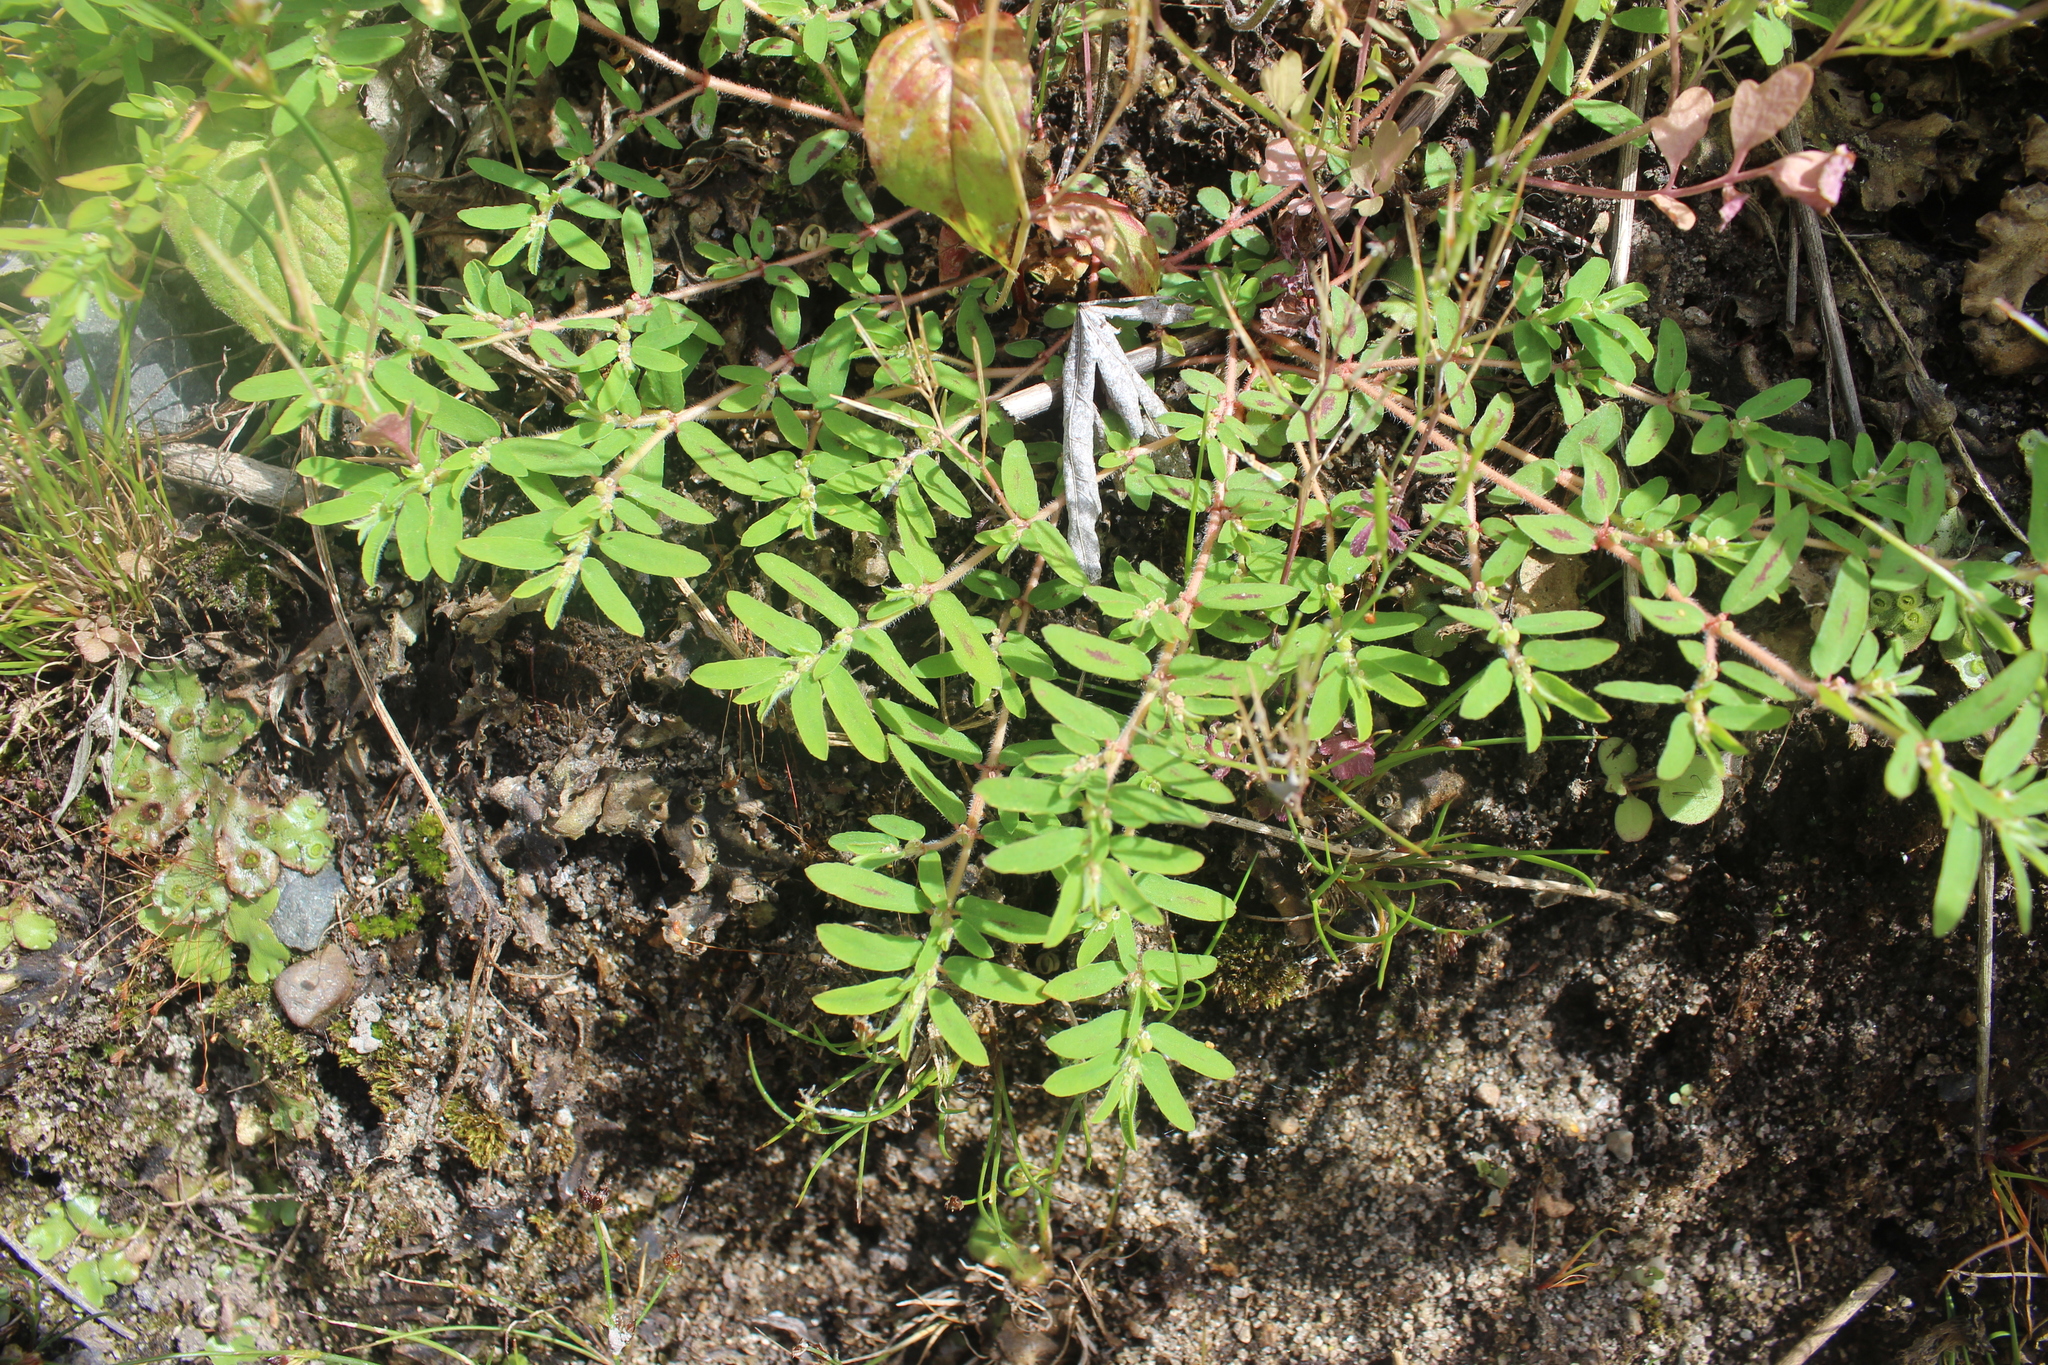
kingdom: Plantae
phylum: Tracheophyta
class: Magnoliopsida
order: Malpighiales
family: Euphorbiaceae
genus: Euphorbia
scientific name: Euphorbia maculata
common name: Spotted spurge
